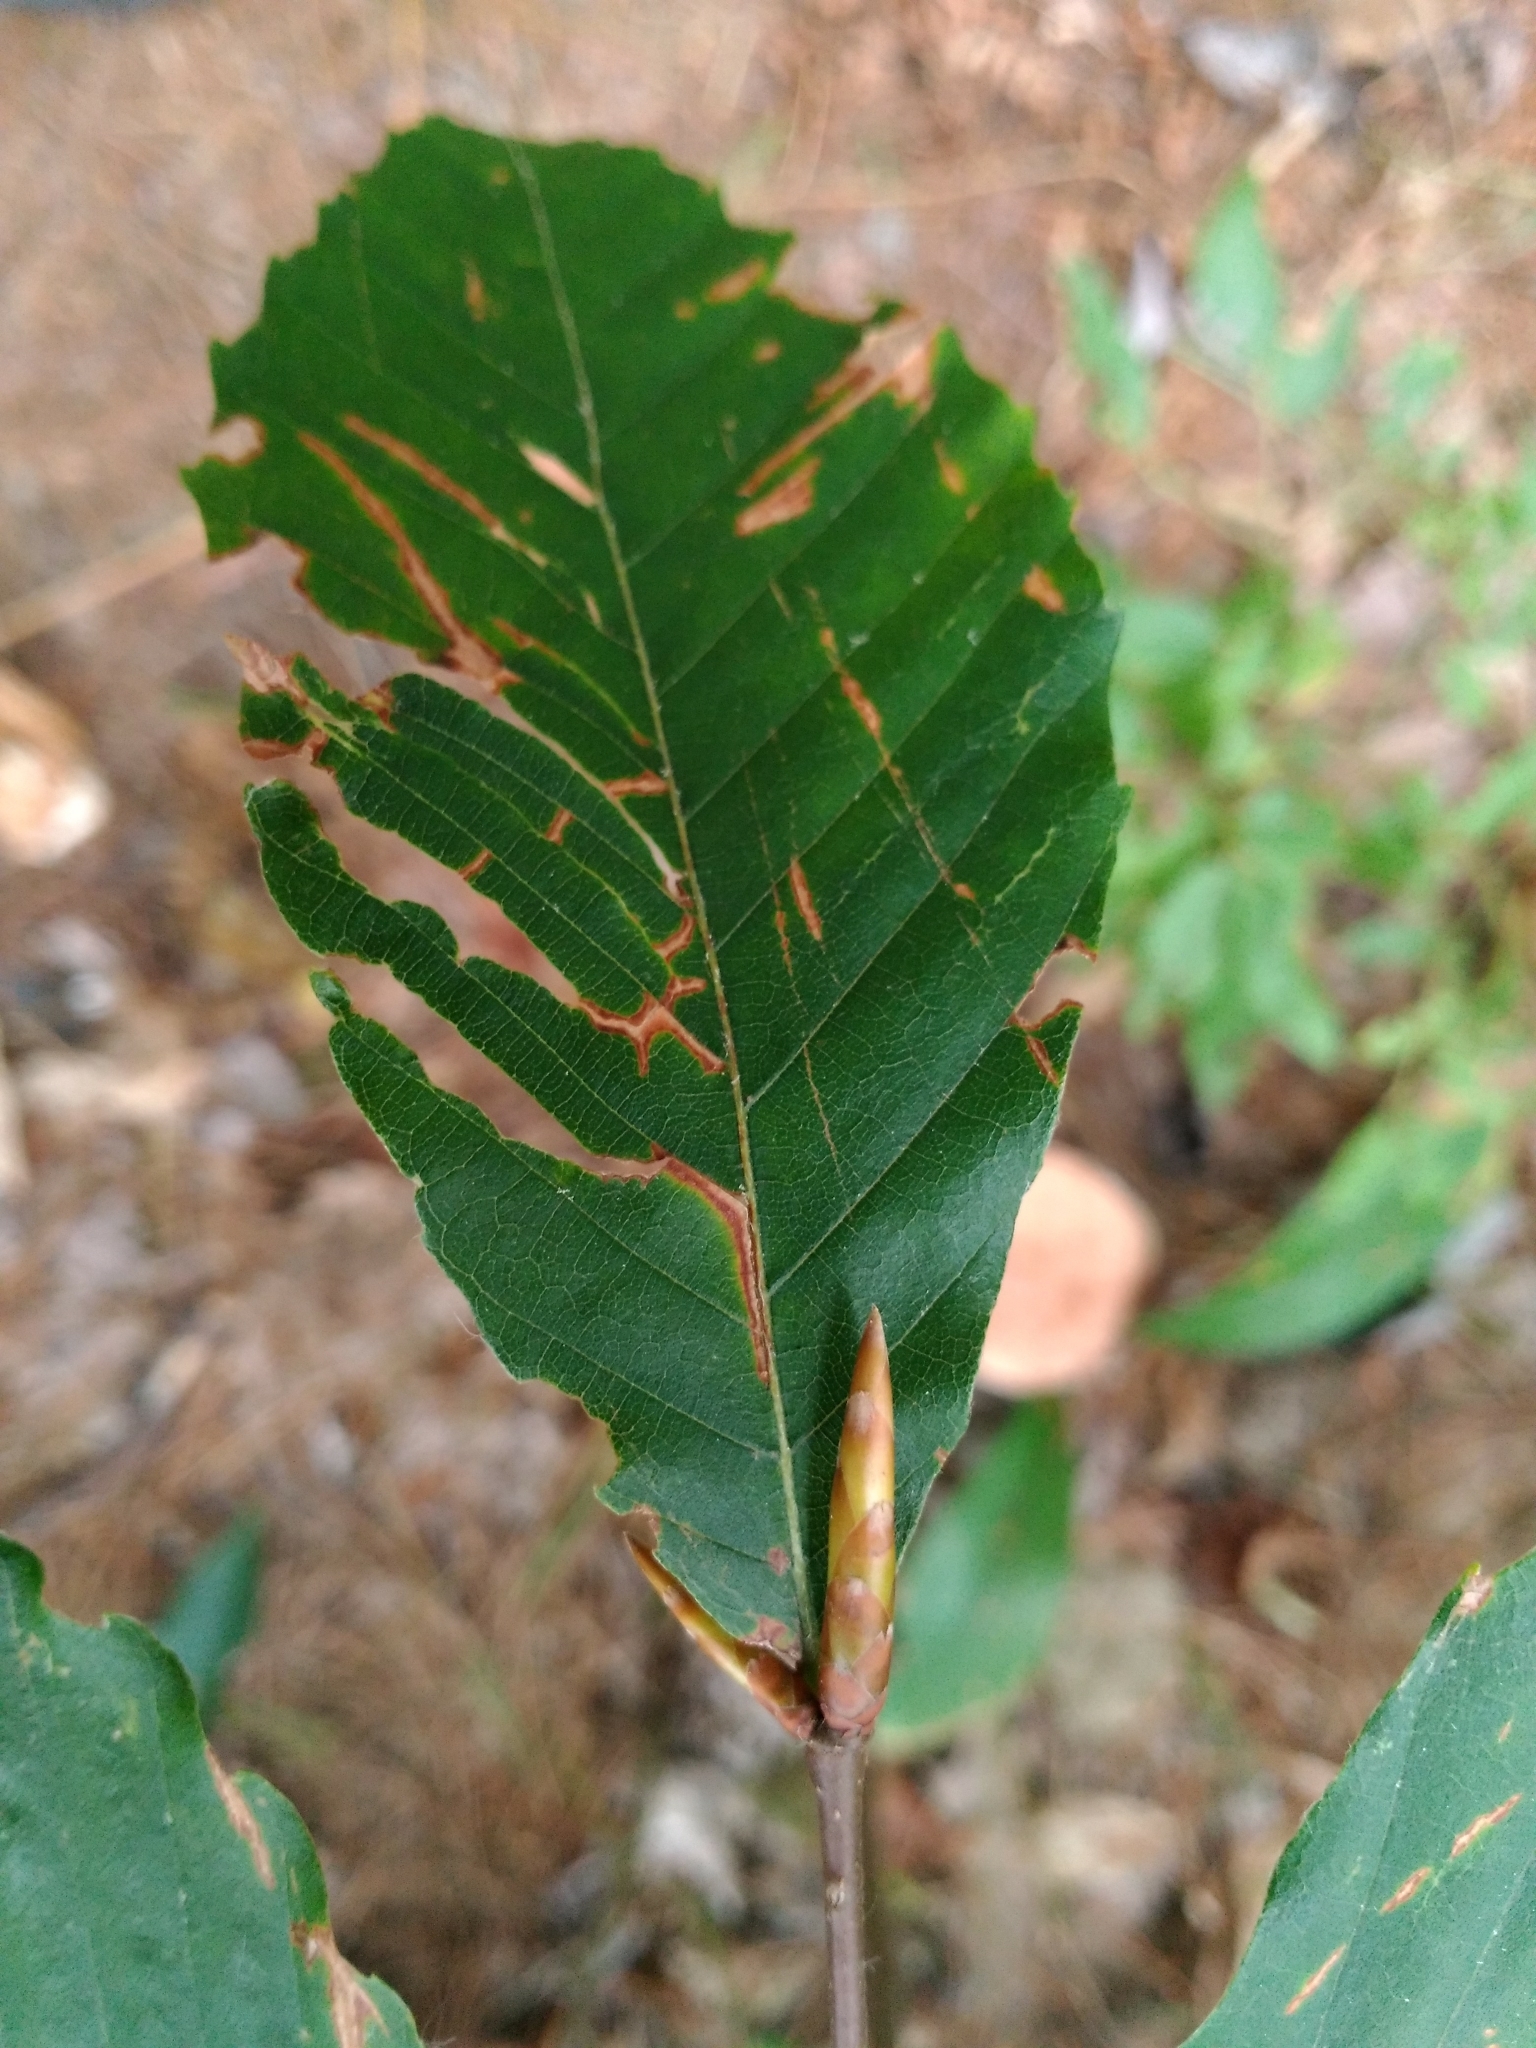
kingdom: Plantae
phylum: Tracheophyta
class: Magnoliopsida
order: Fagales
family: Fagaceae
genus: Fagus
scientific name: Fagus grandifolia
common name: American beech
